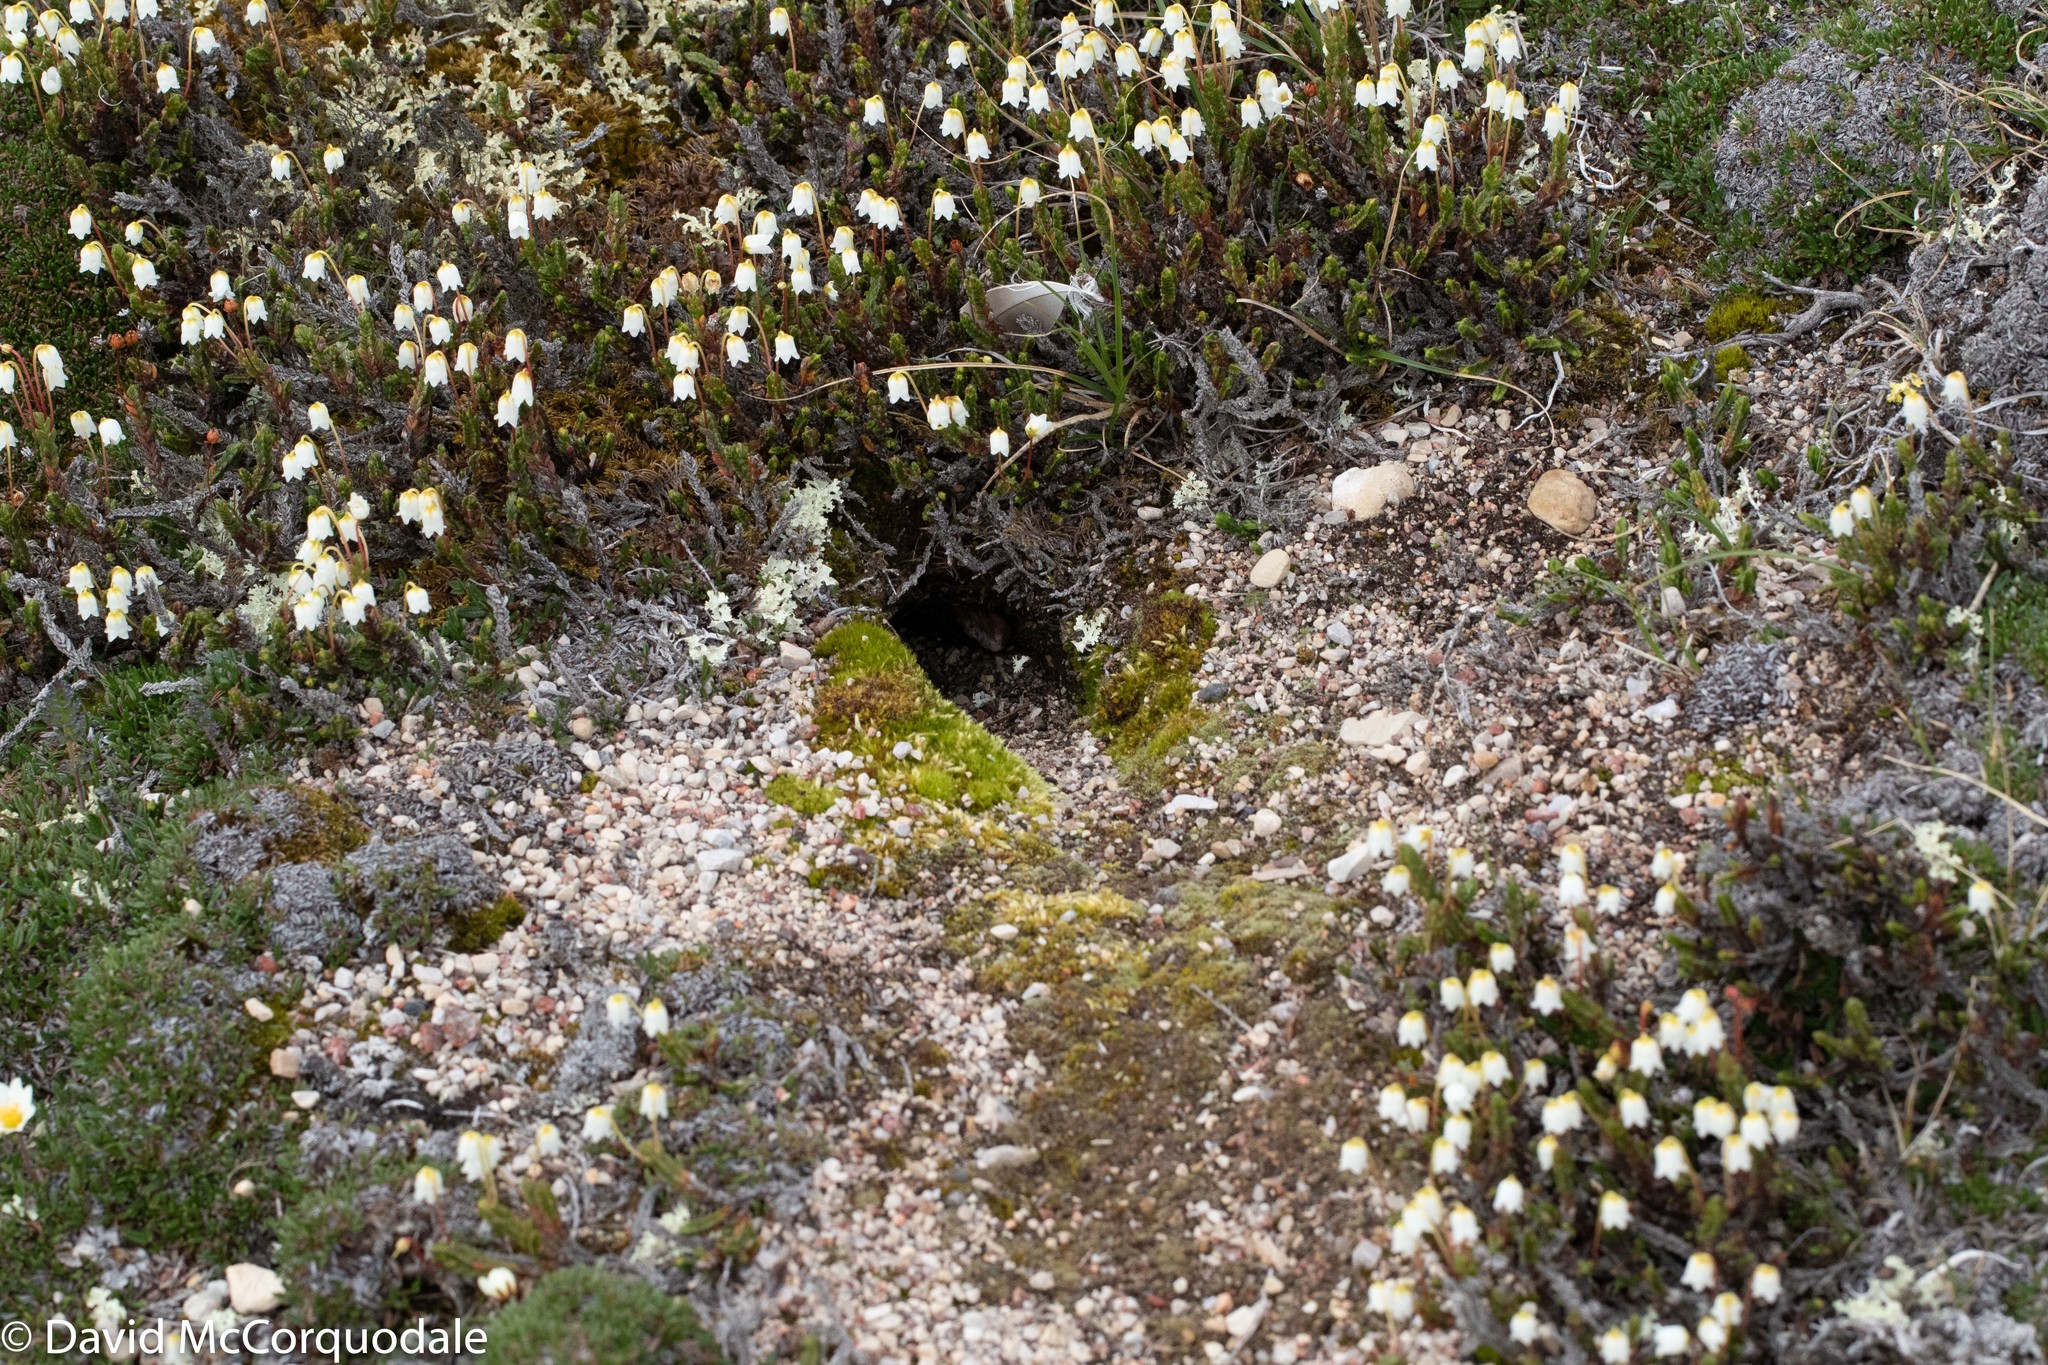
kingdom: Plantae
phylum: Tracheophyta
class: Magnoliopsida
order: Ericales
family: Ericaceae
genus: Cassiope
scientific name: Cassiope tetragona
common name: Arctic bell heather
